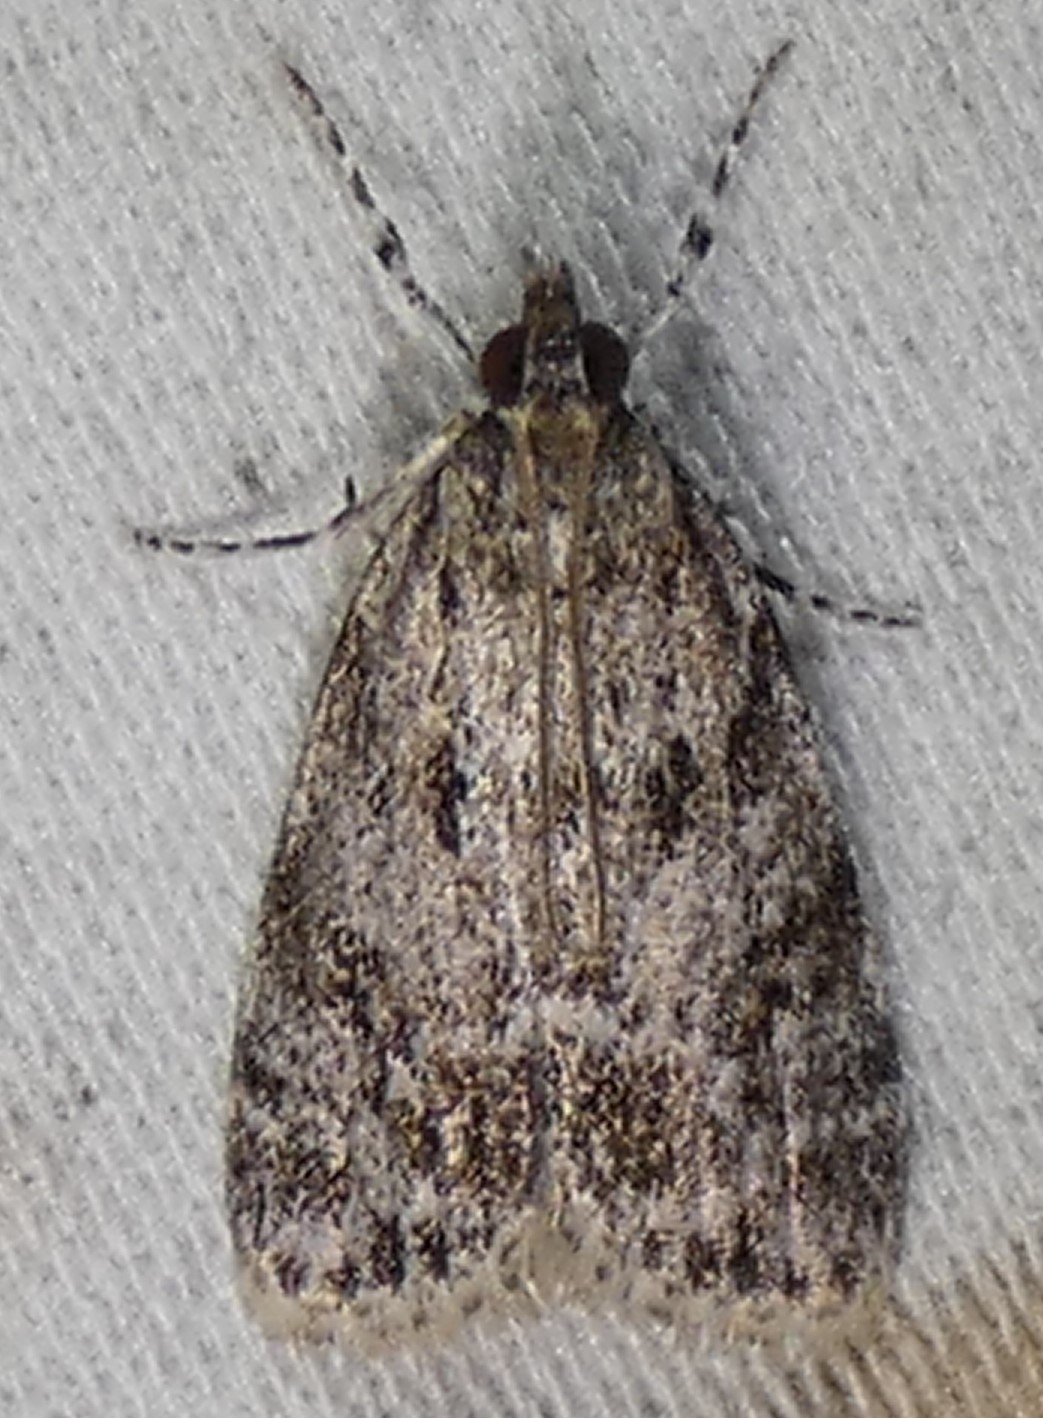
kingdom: Animalia
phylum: Arthropoda
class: Insecta
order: Lepidoptera
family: Crambidae
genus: Scoparia
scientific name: Scoparia basalis
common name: Many-spotted scoparia moth
